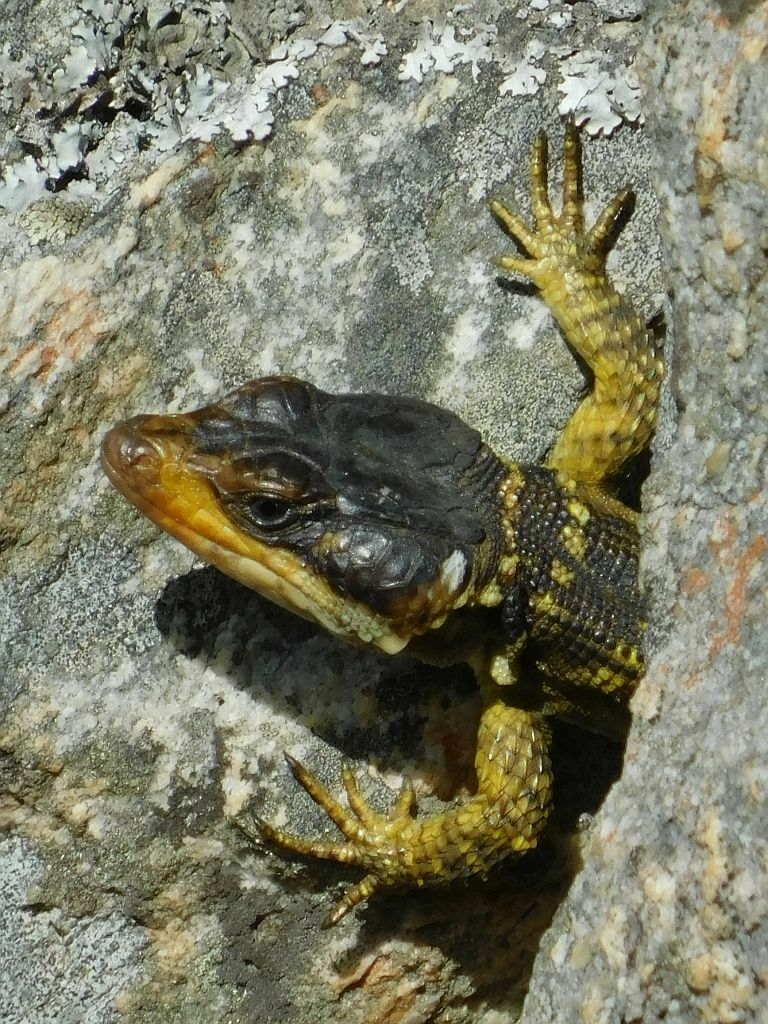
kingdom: Animalia
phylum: Chordata
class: Squamata
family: Cordylidae
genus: Pseudocordylus
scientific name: Pseudocordylus microlepidotus
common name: Cape crag lizard
